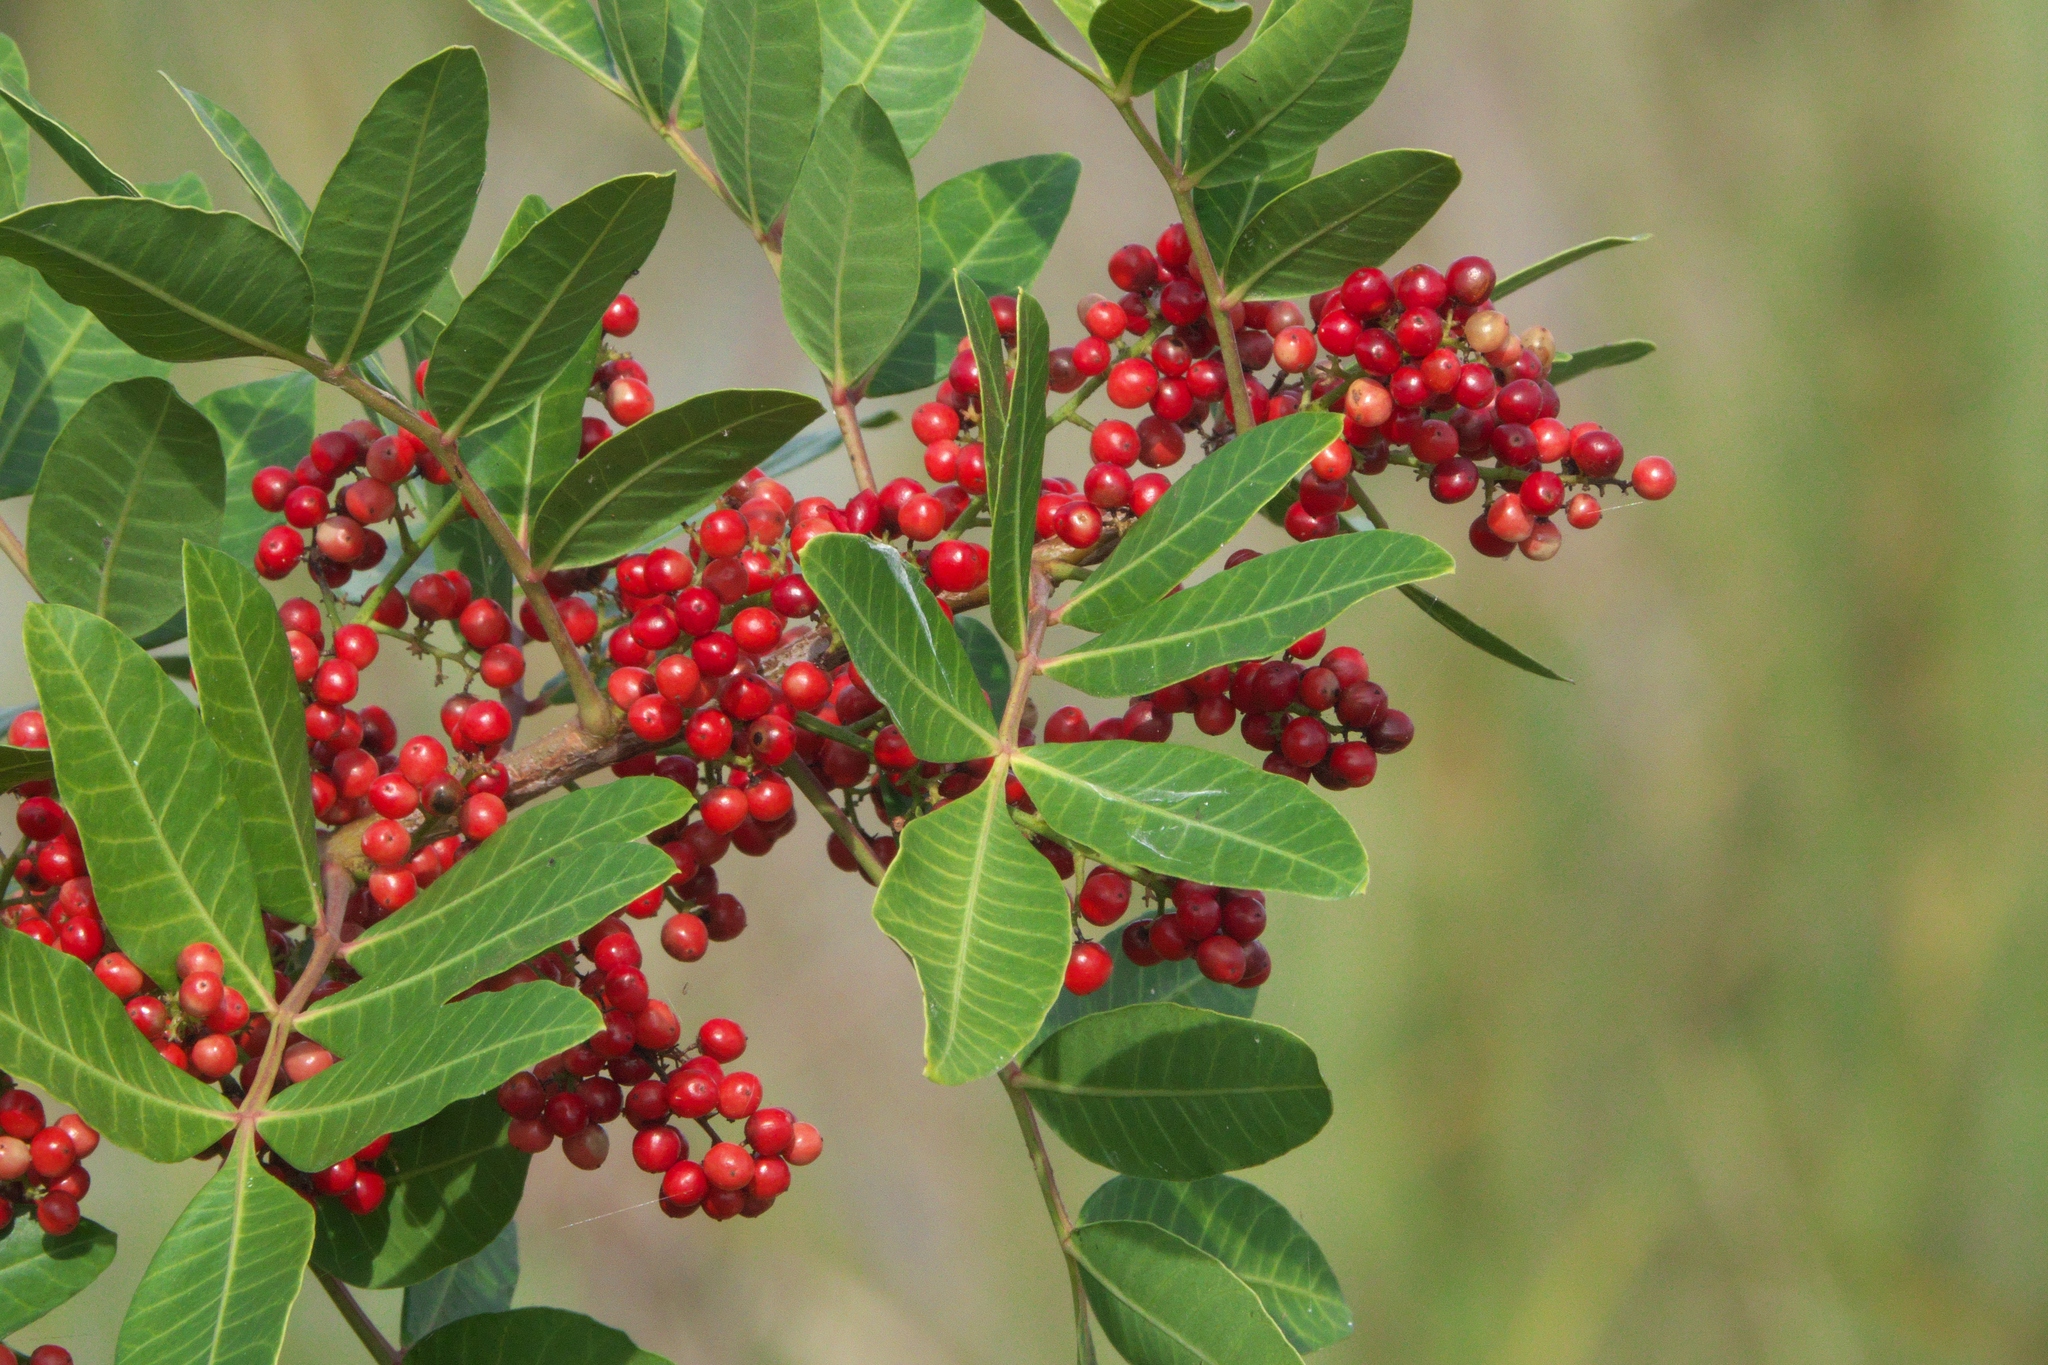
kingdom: Plantae
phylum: Tracheophyta
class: Magnoliopsida
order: Sapindales
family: Anacardiaceae
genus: Schinus
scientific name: Schinus terebinthifolia
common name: Brazilian peppertree
